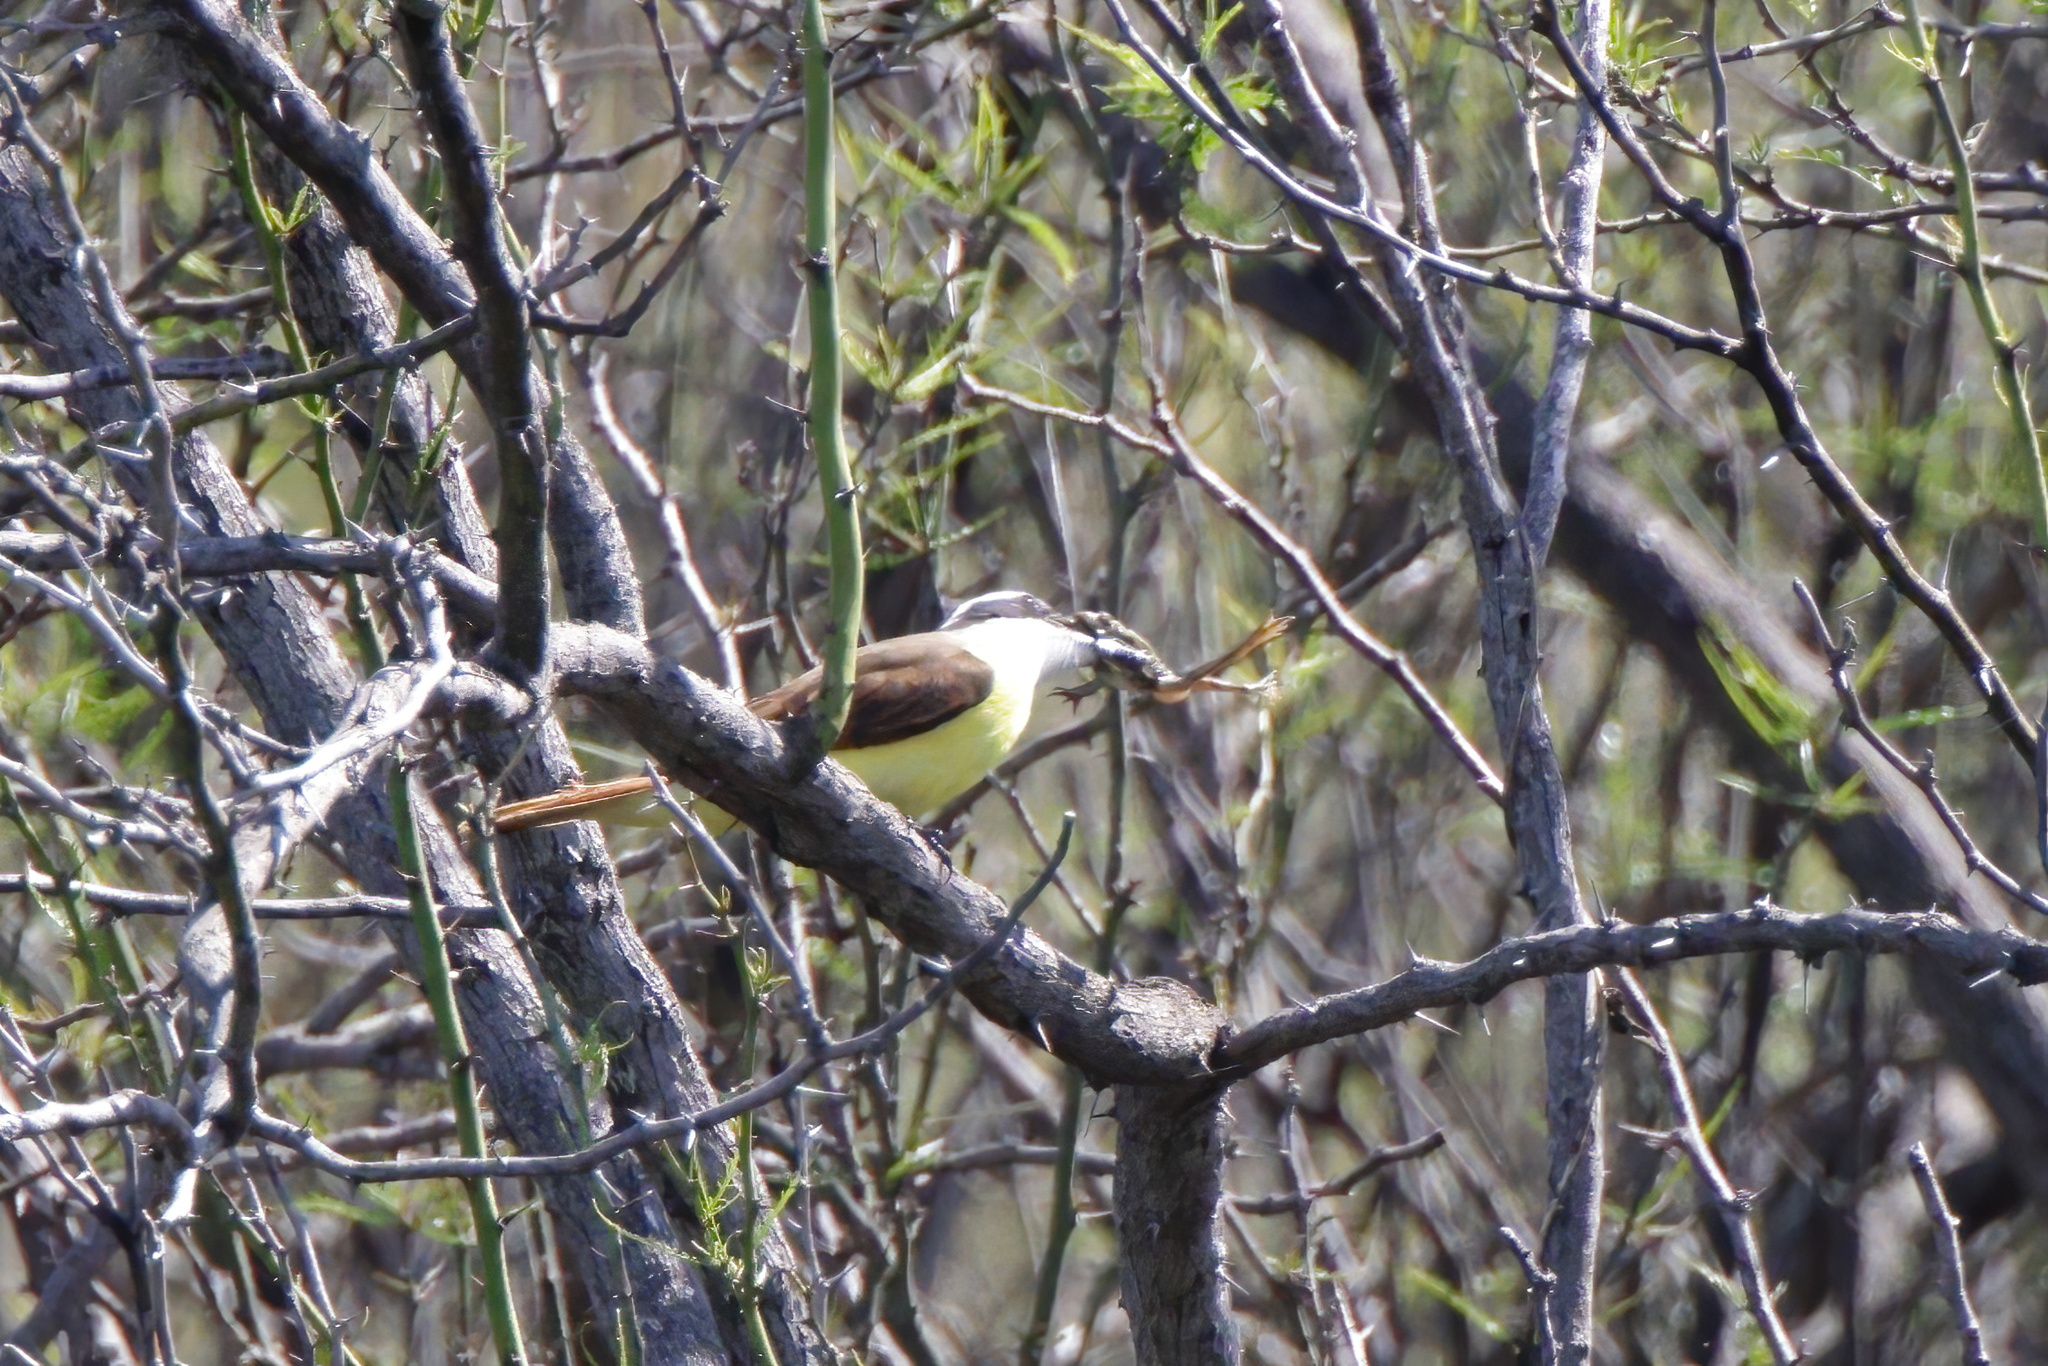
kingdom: Animalia
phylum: Chordata
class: Amphibia
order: Anura
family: Ranidae
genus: Lithobates
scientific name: Lithobates berlandieri
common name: Rio grande leopard frog
